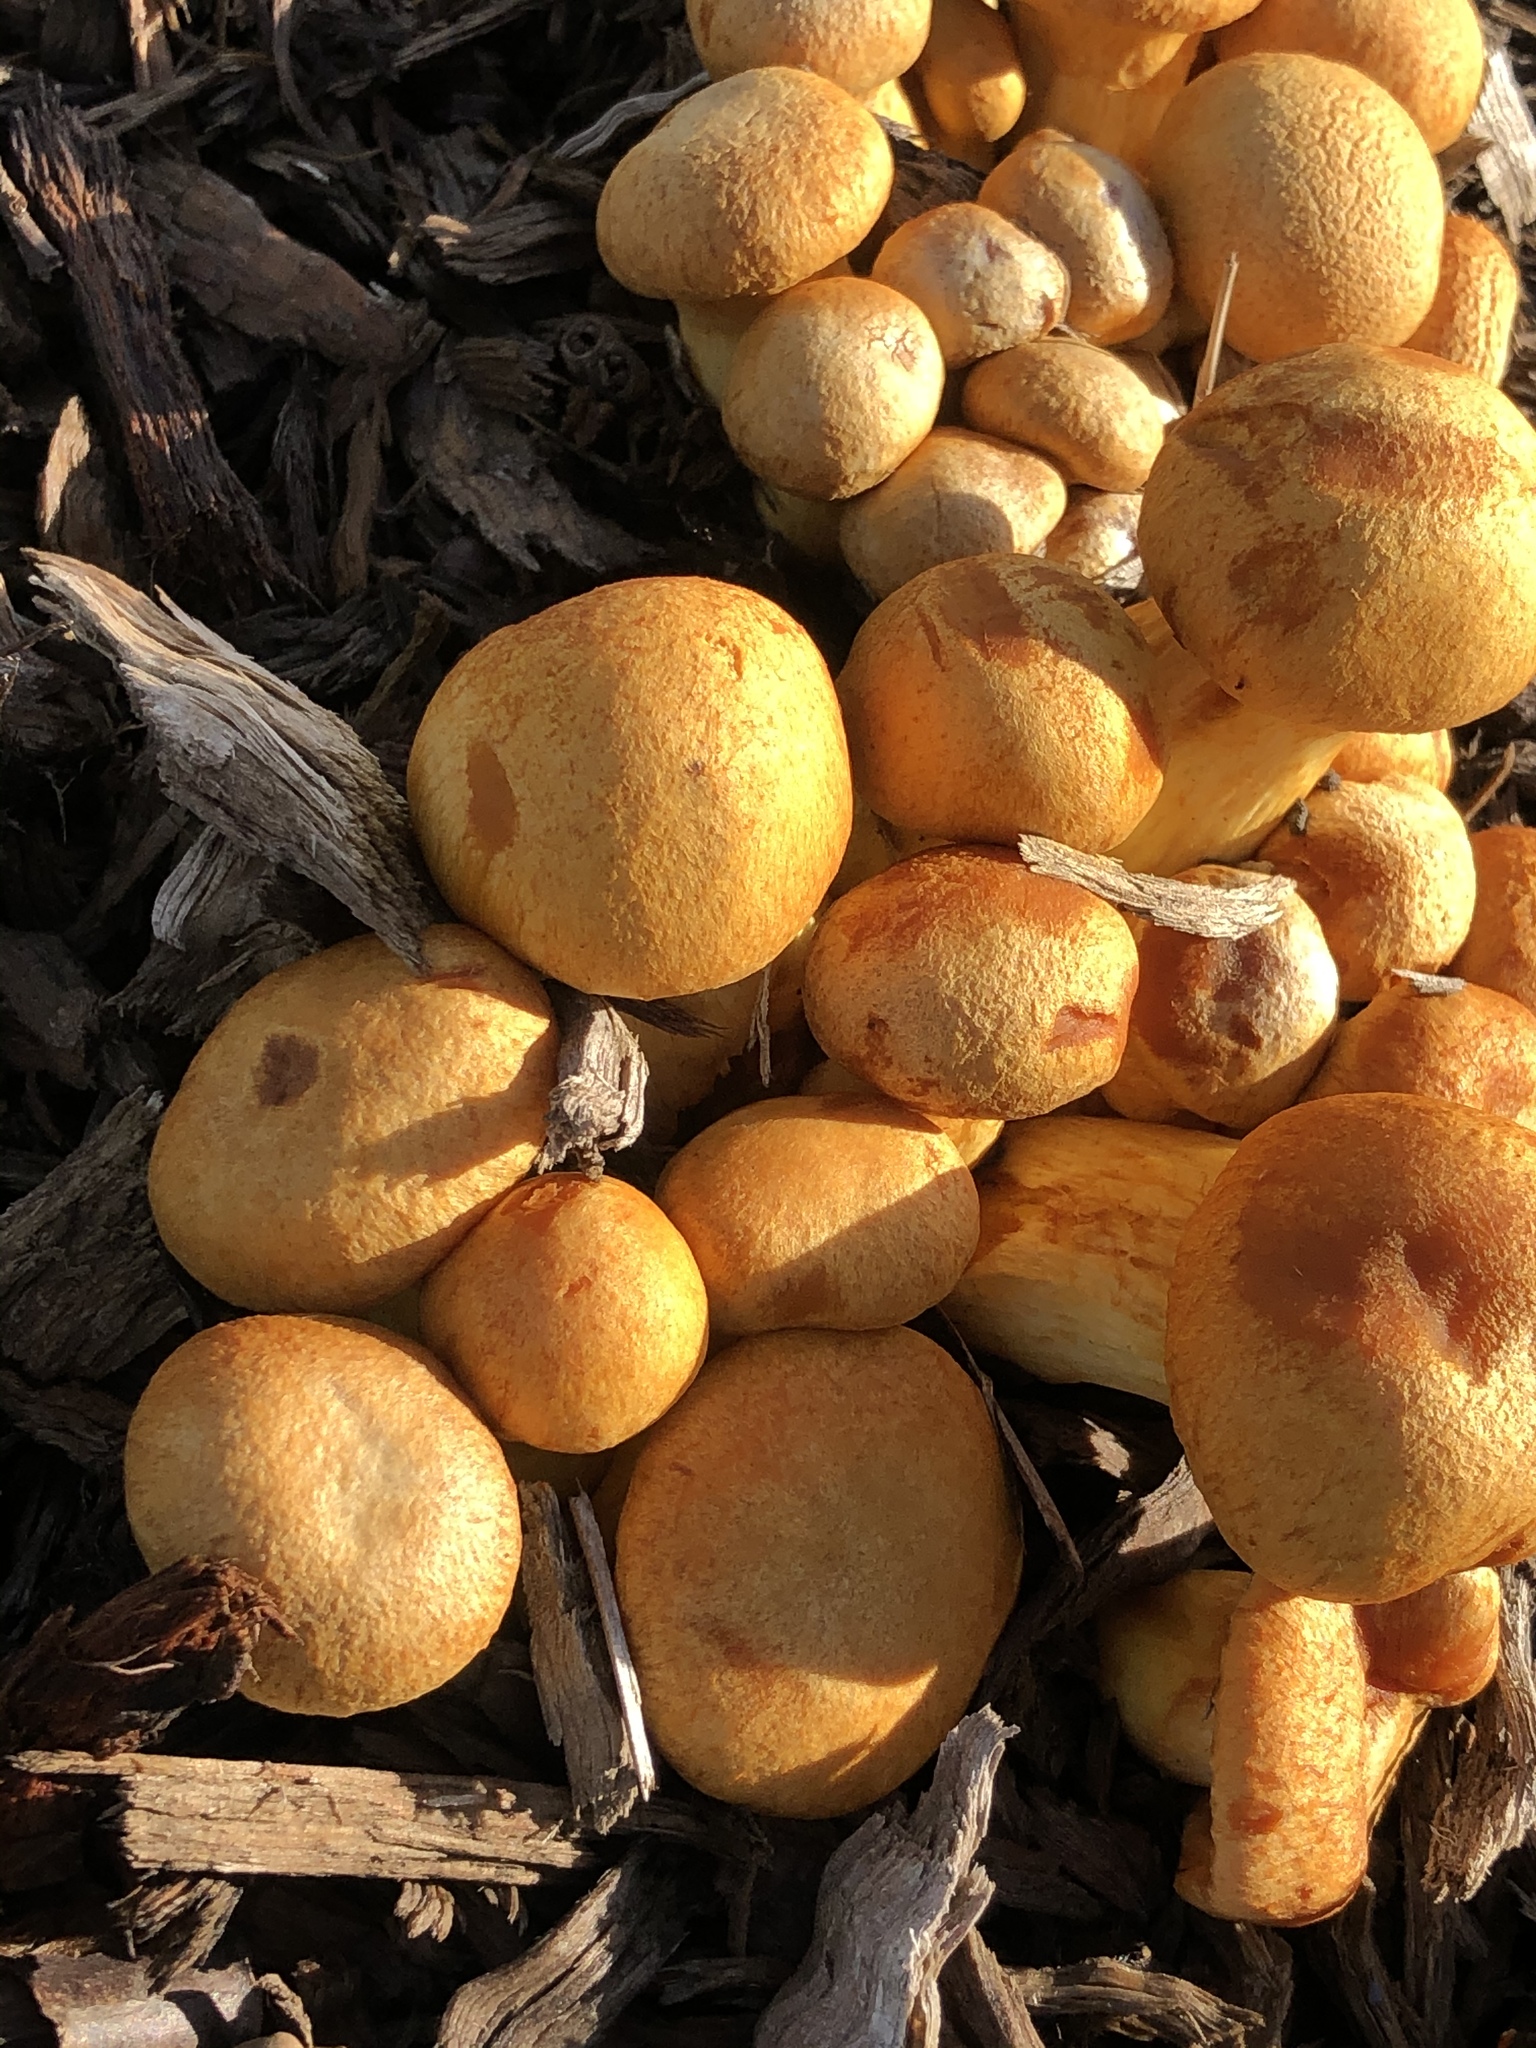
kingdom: Fungi
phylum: Basidiomycota
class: Agaricomycetes
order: Agaricales
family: Hymenogastraceae
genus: Gymnopilus
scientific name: Gymnopilus junonius
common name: Spectacular rustgill
